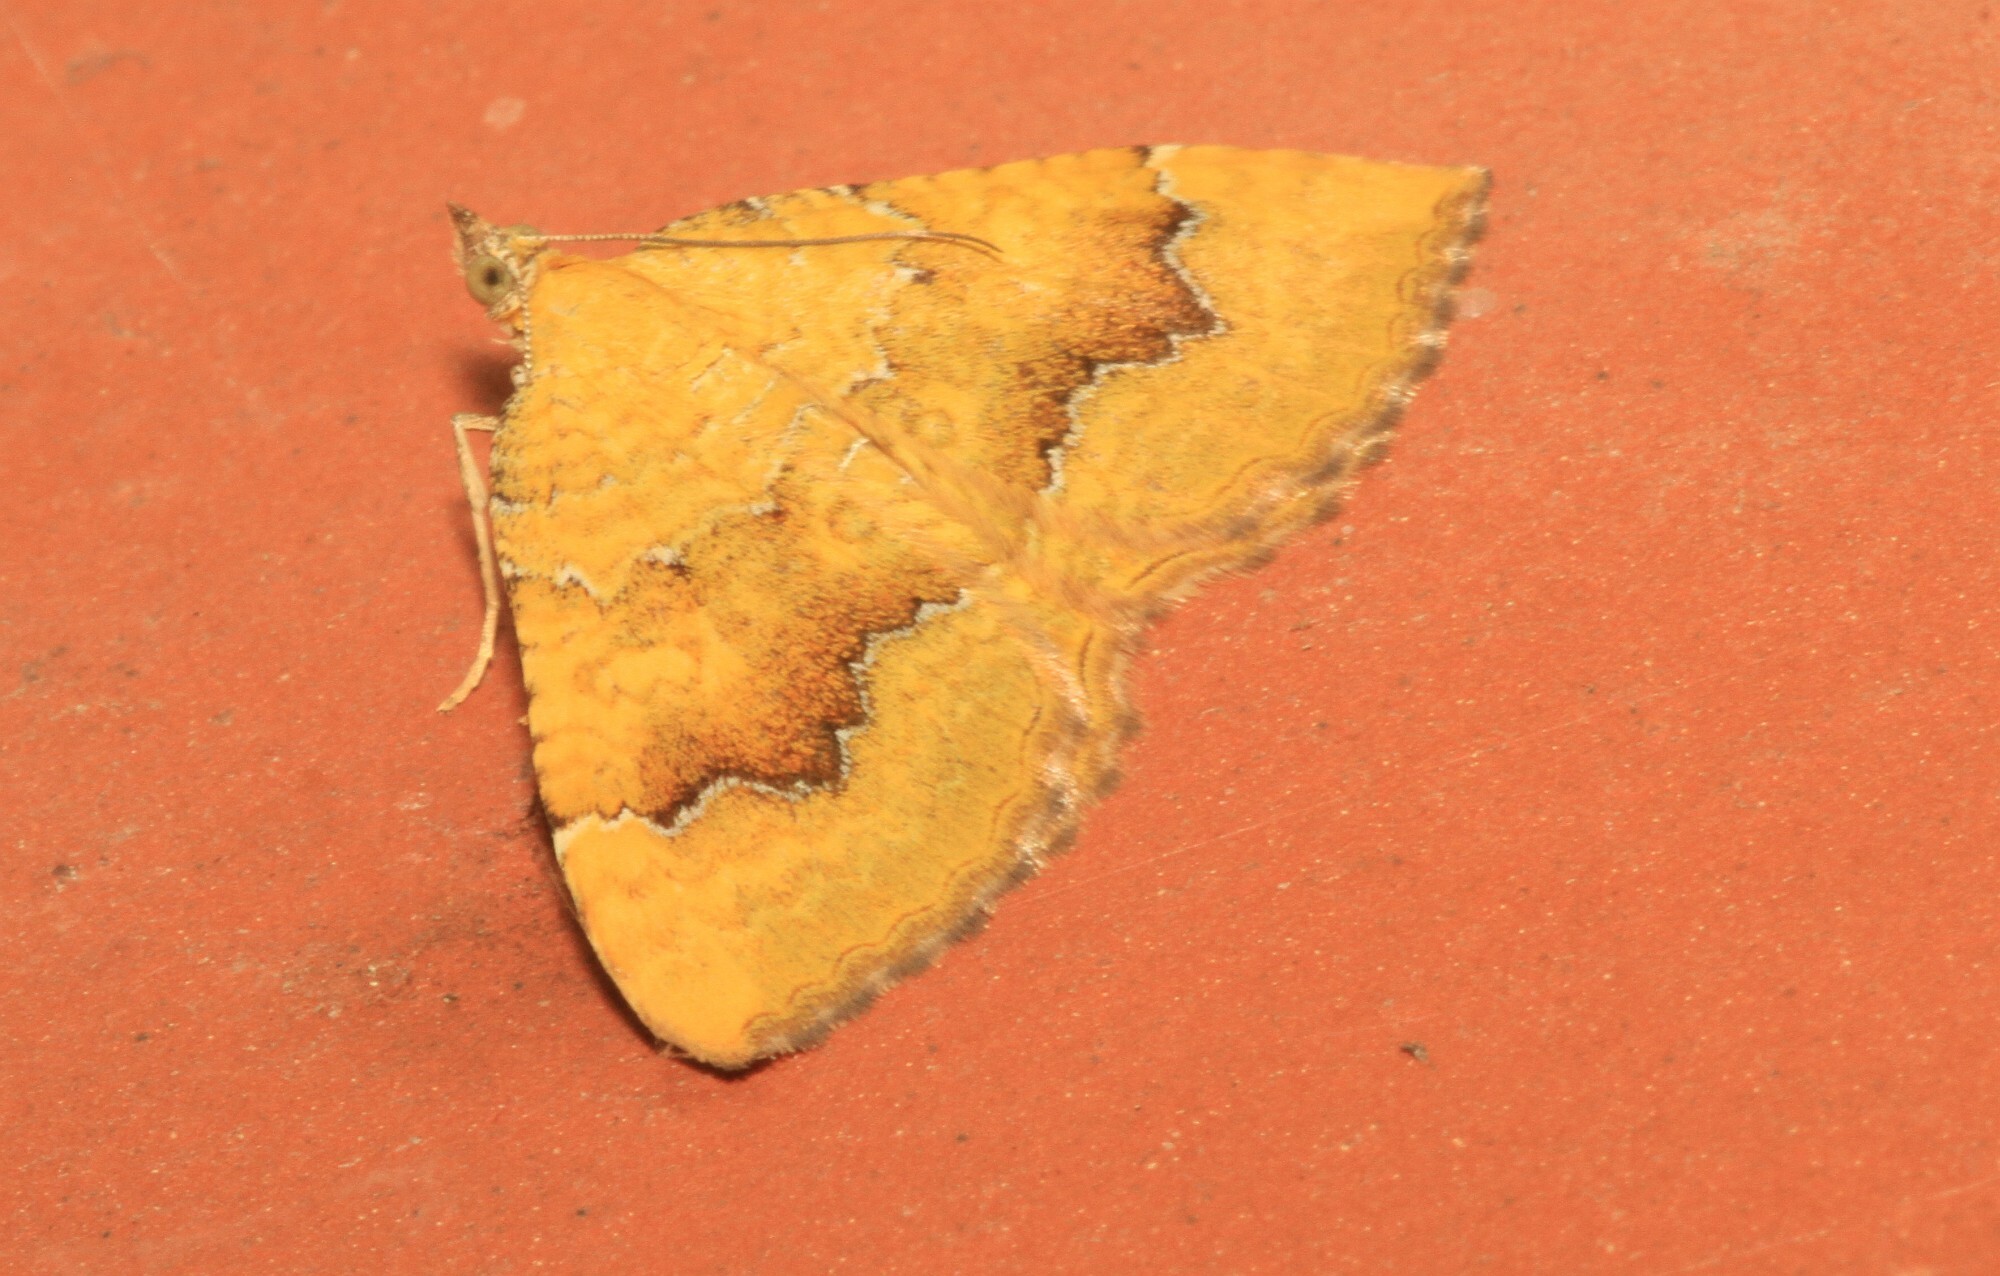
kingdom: Animalia
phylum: Arthropoda
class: Insecta
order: Lepidoptera
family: Geometridae
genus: Camptogramma
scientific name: Camptogramma bilineata
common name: Yellow shell
